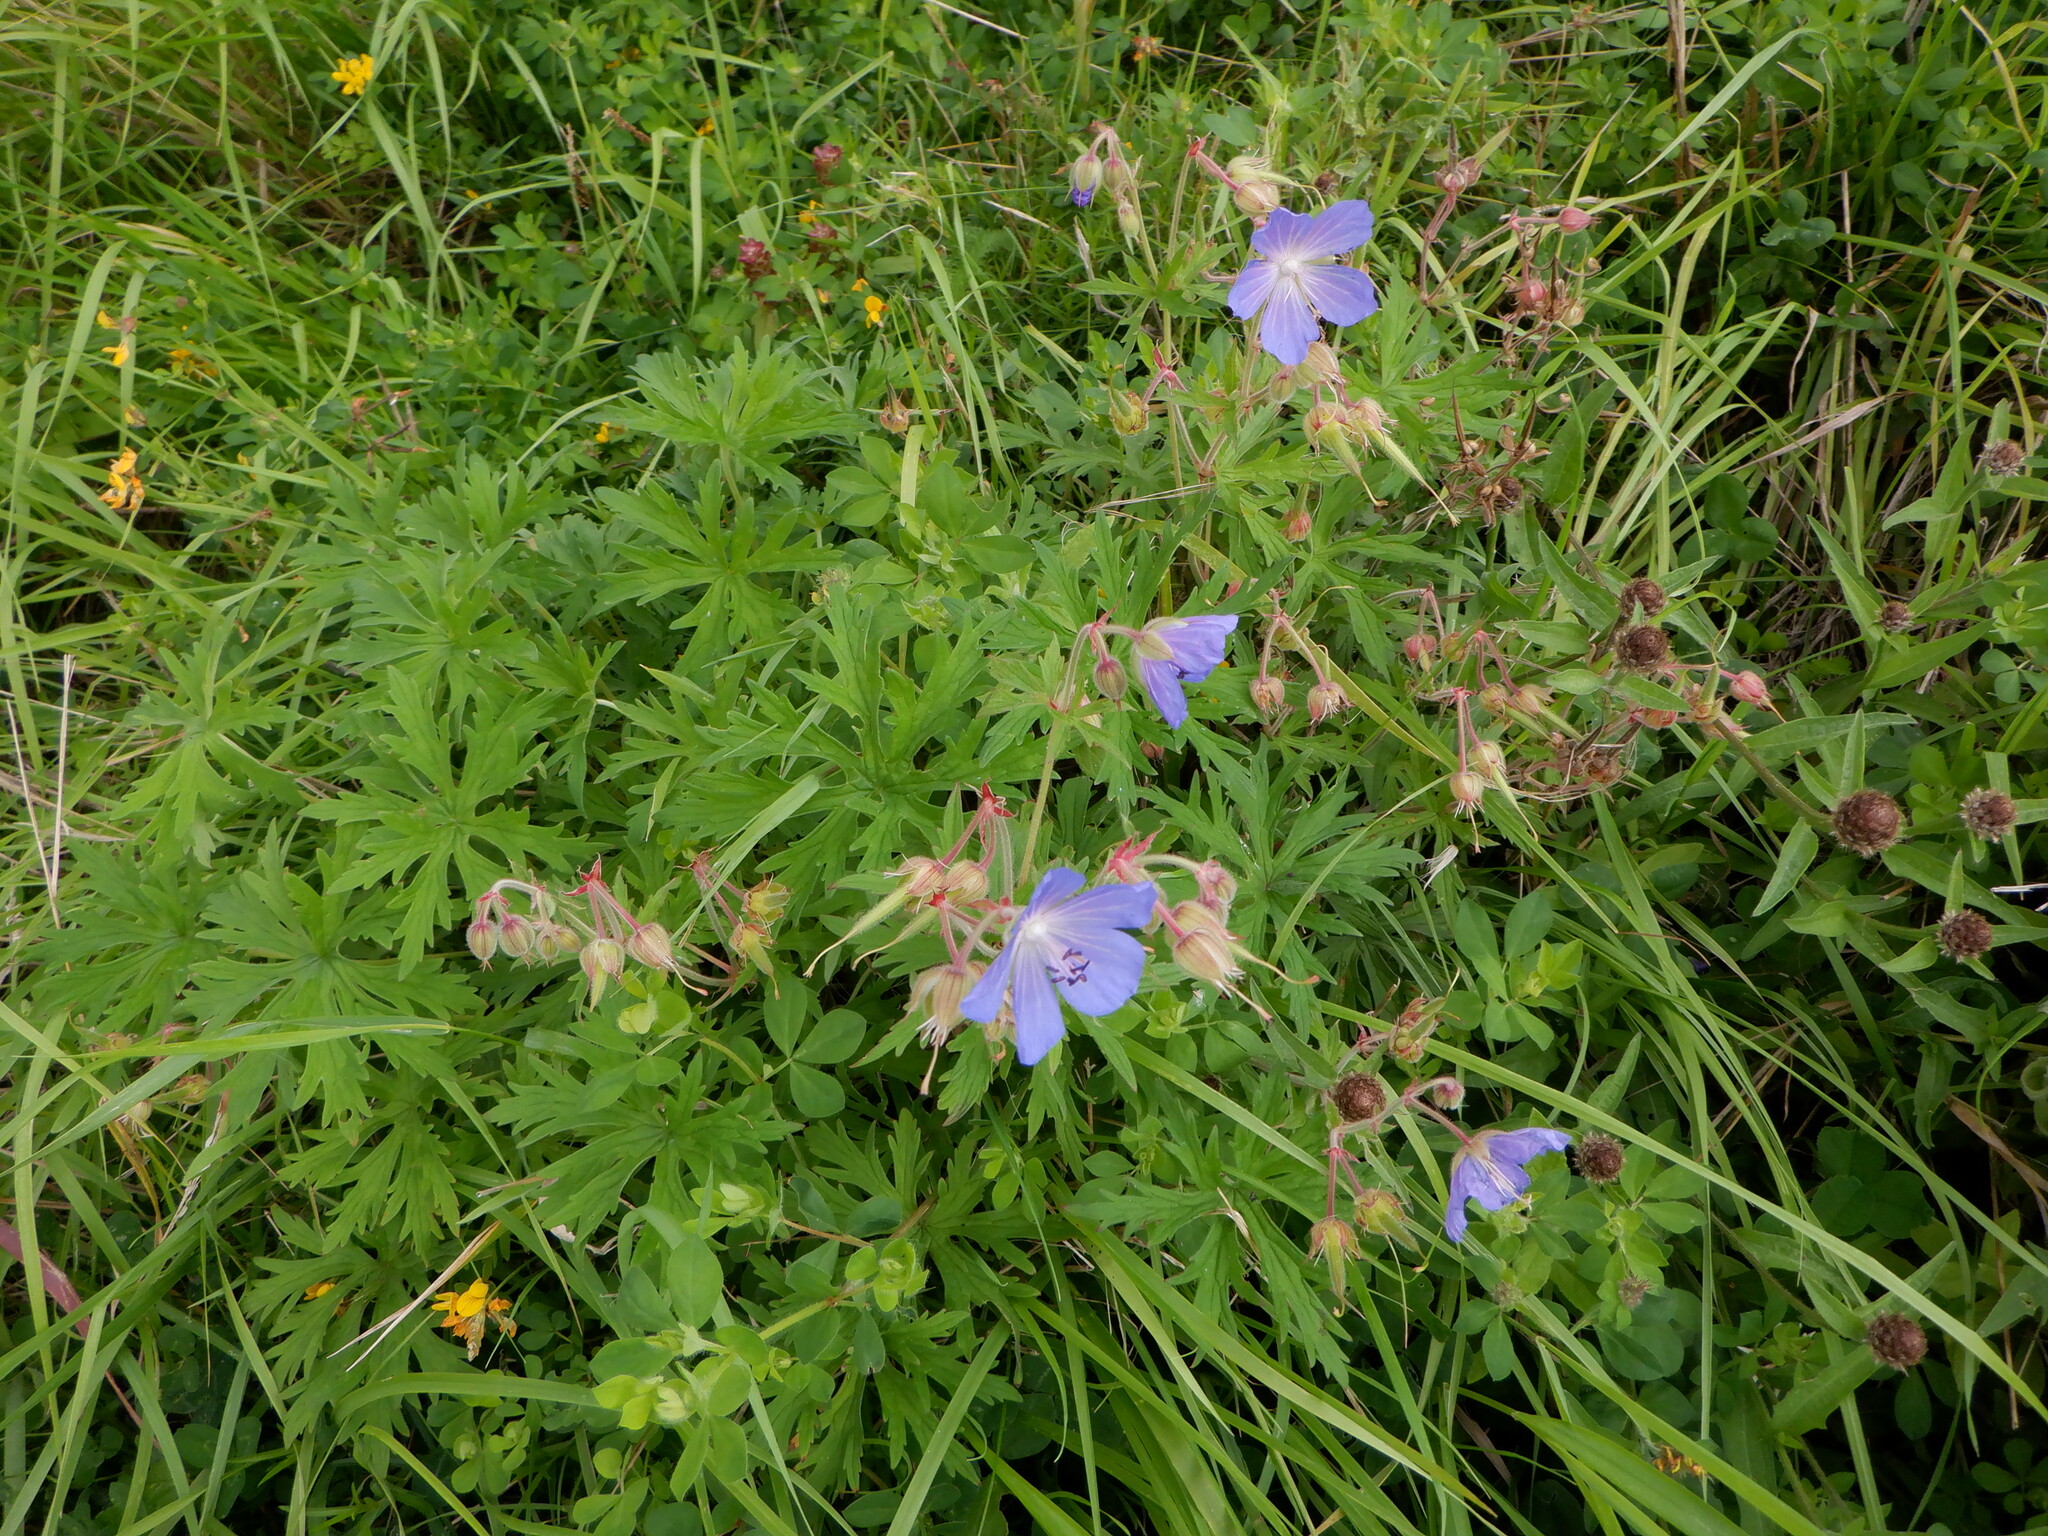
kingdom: Plantae
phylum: Tracheophyta
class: Magnoliopsida
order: Geraniales
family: Geraniaceae
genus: Geranium
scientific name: Geranium pratense
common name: Meadow crane's-bill
